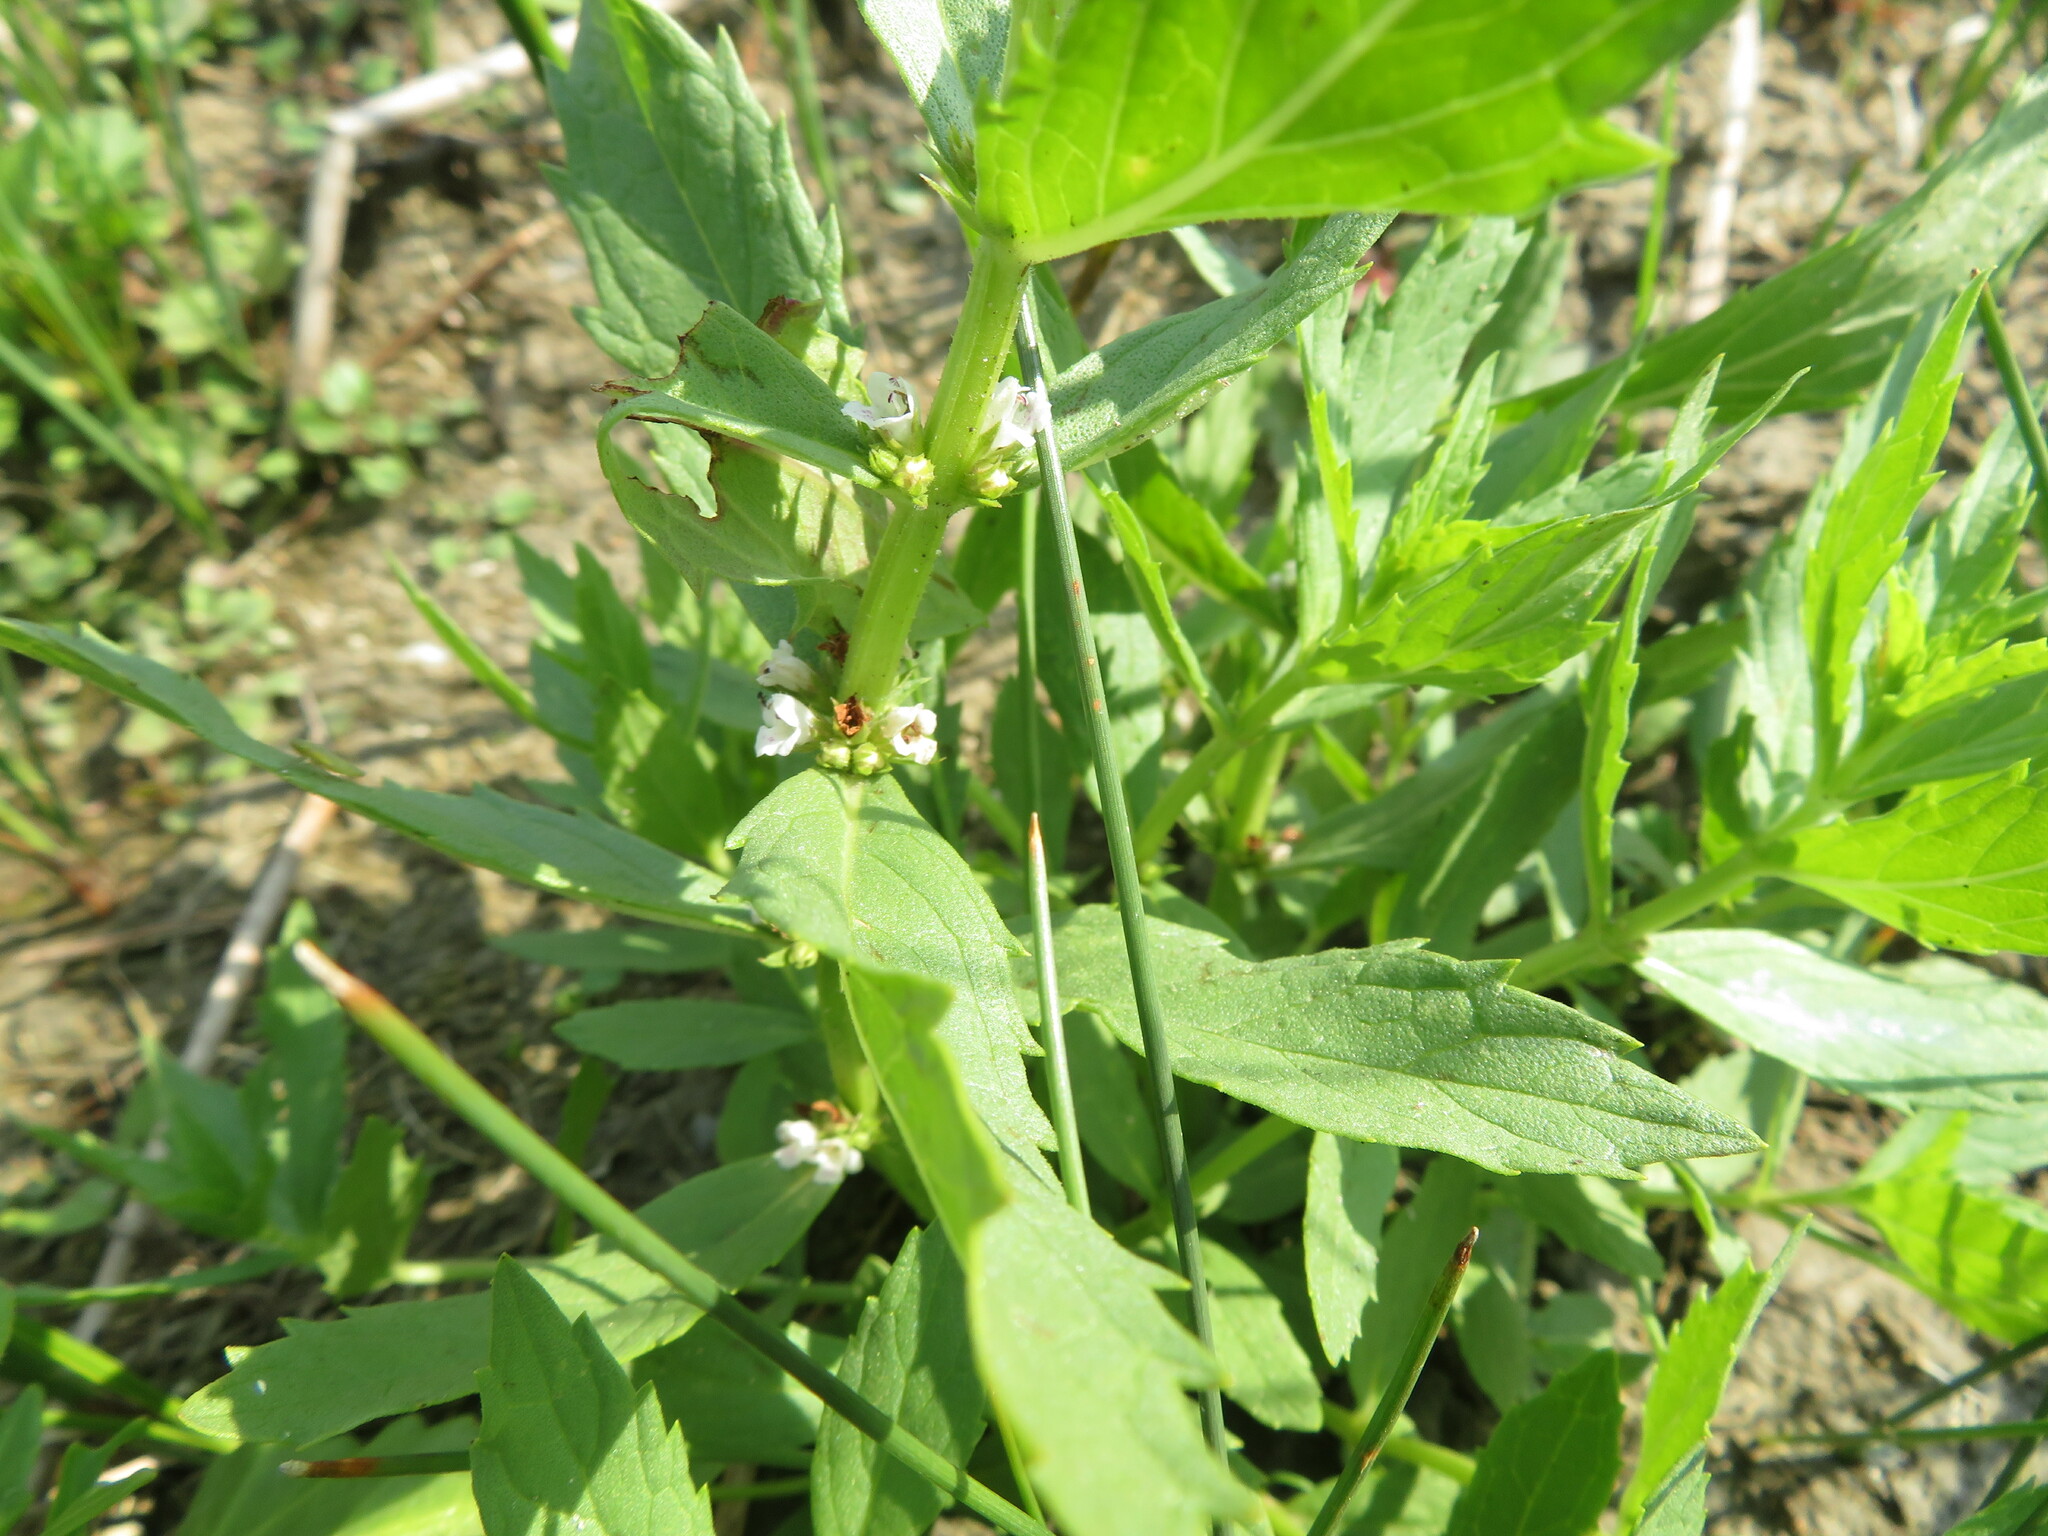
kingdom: Plantae
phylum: Tracheophyta
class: Magnoliopsida
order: Lamiales
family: Lamiaceae
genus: Lycopus
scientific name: Lycopus asper
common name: Rough water-horehound
